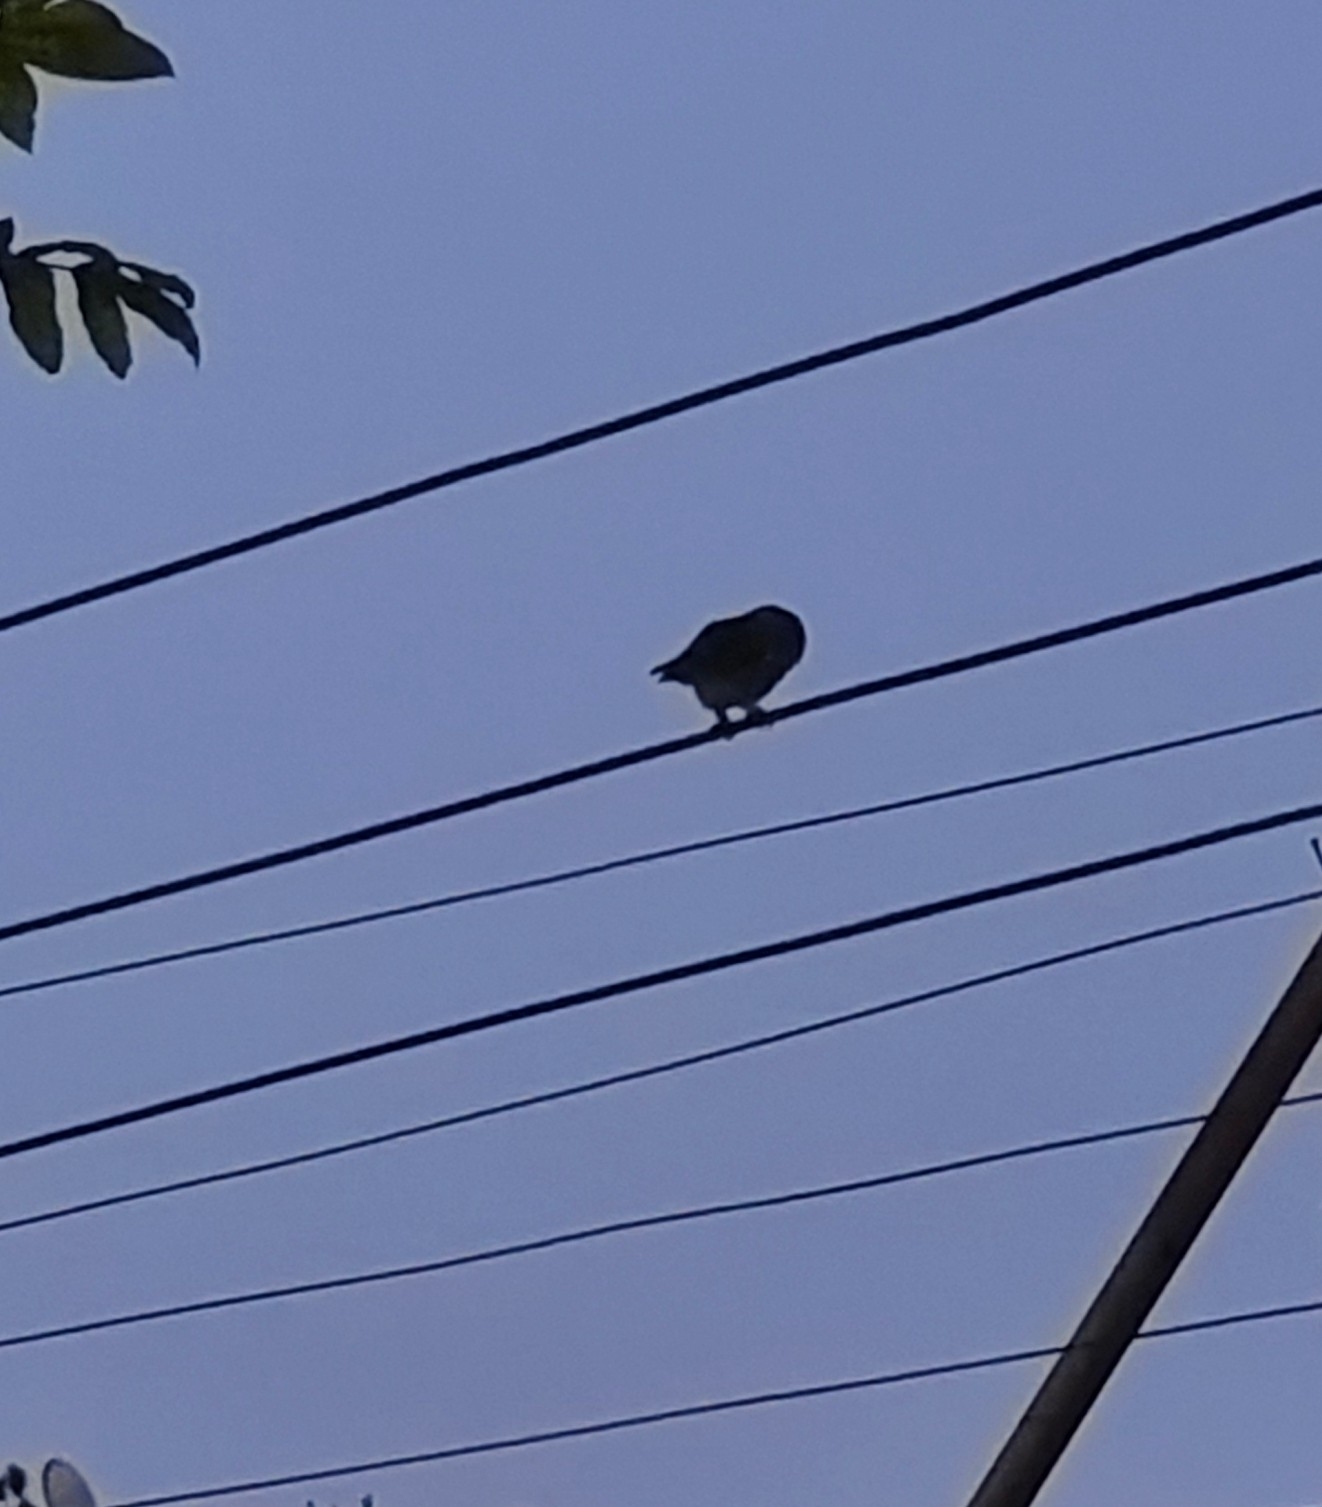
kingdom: Animalia
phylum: Chordata
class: Aves
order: Strigiformes
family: Strigidae
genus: Athene
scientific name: Athene brama
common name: Spotted owlet
